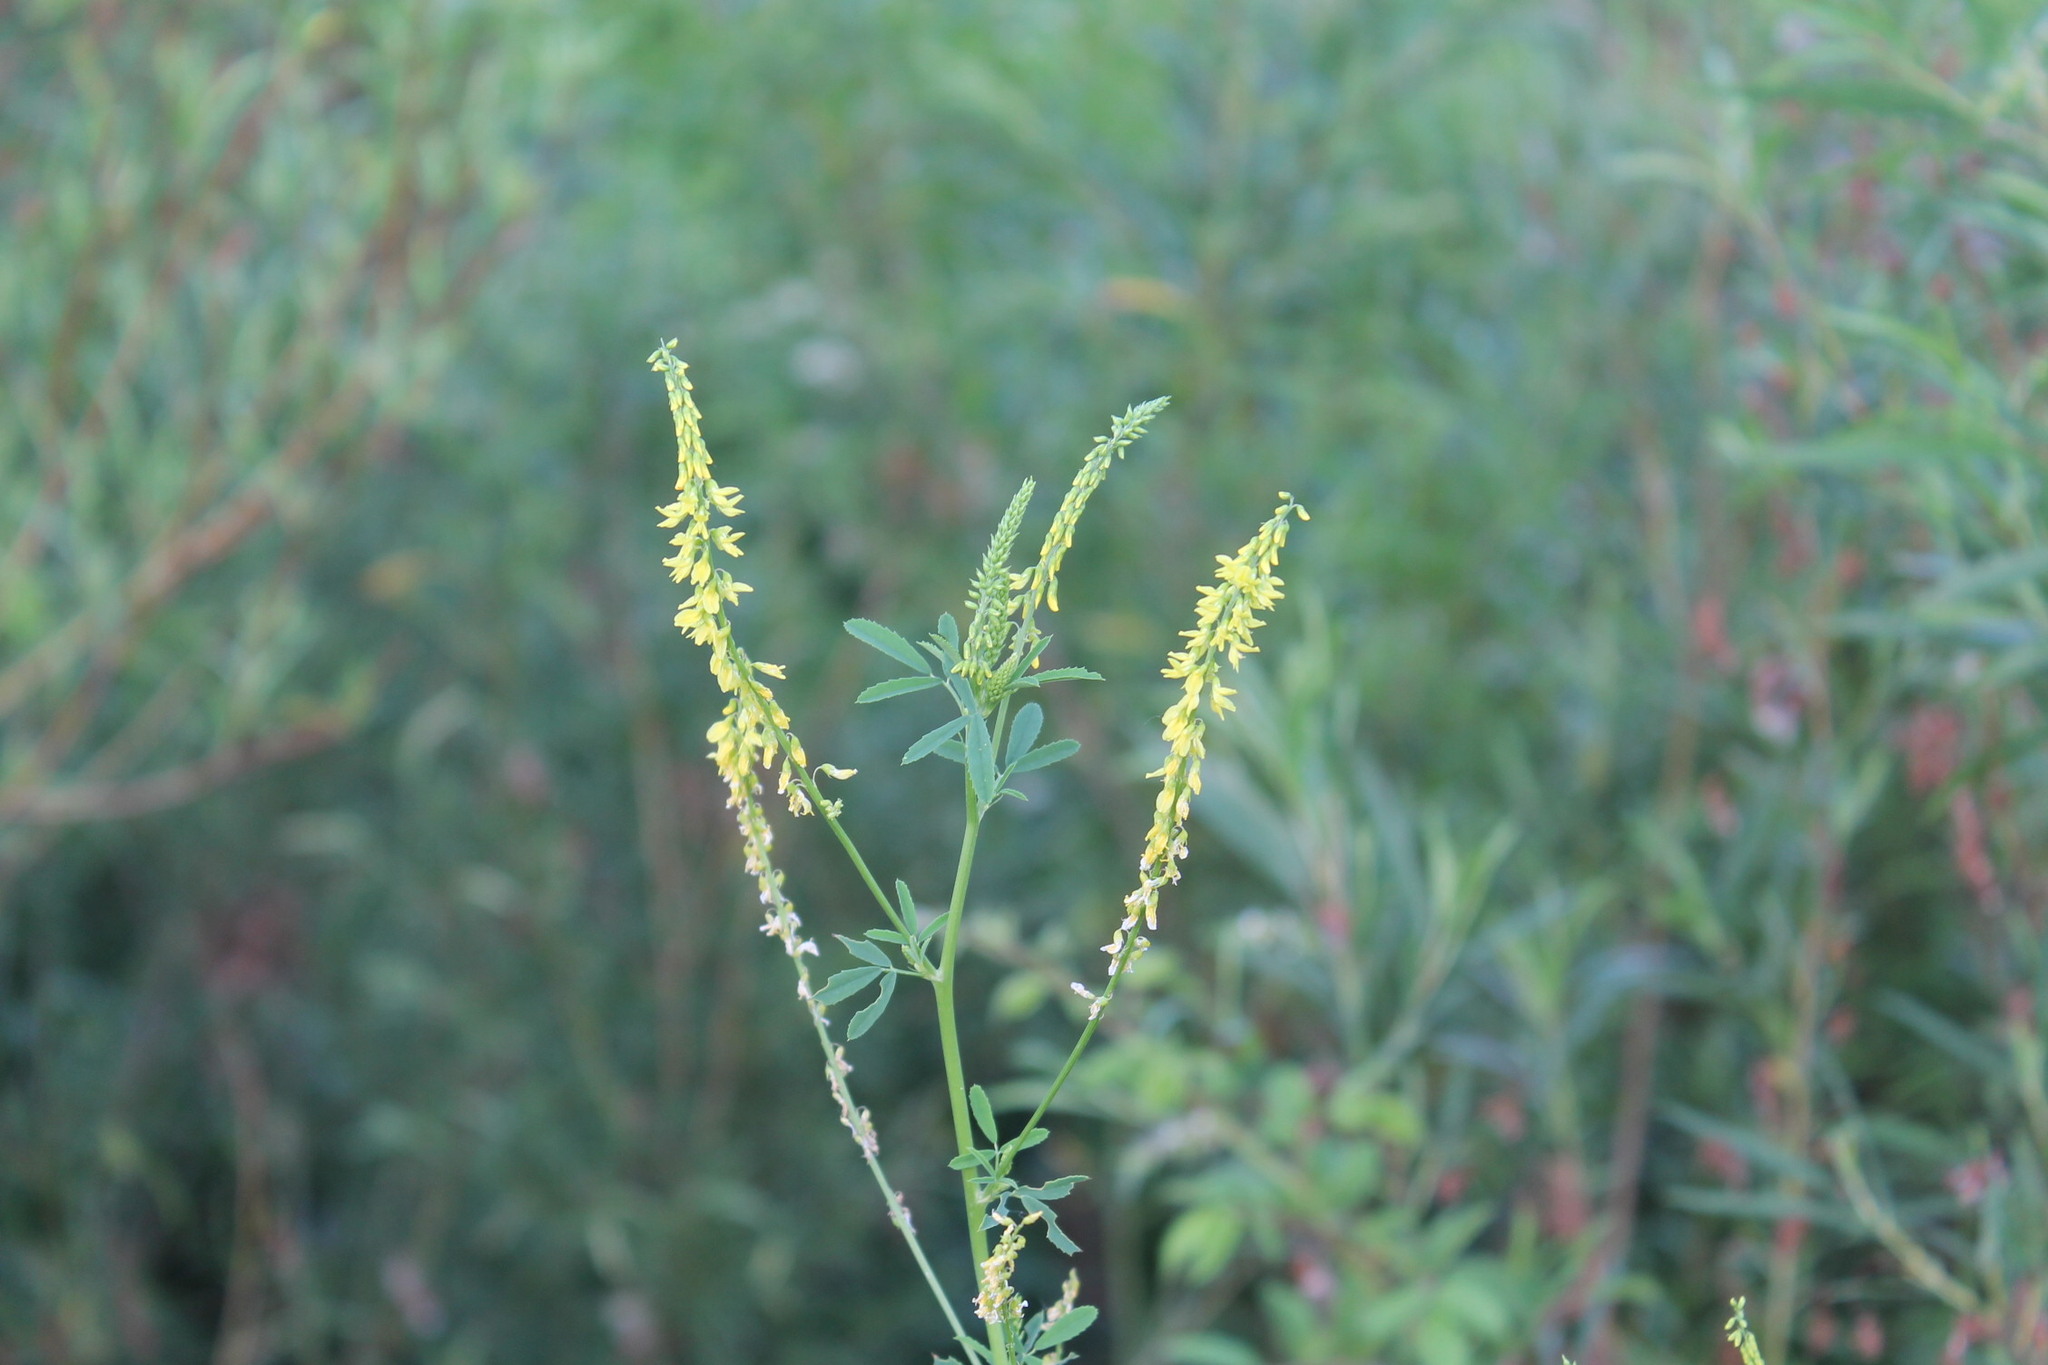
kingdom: Plantae
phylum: Tracheophyta
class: Magnoliopsida
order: Fabales
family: Fabaceae
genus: Melilotus
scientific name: Melilotus officinalis
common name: Sweetclover
